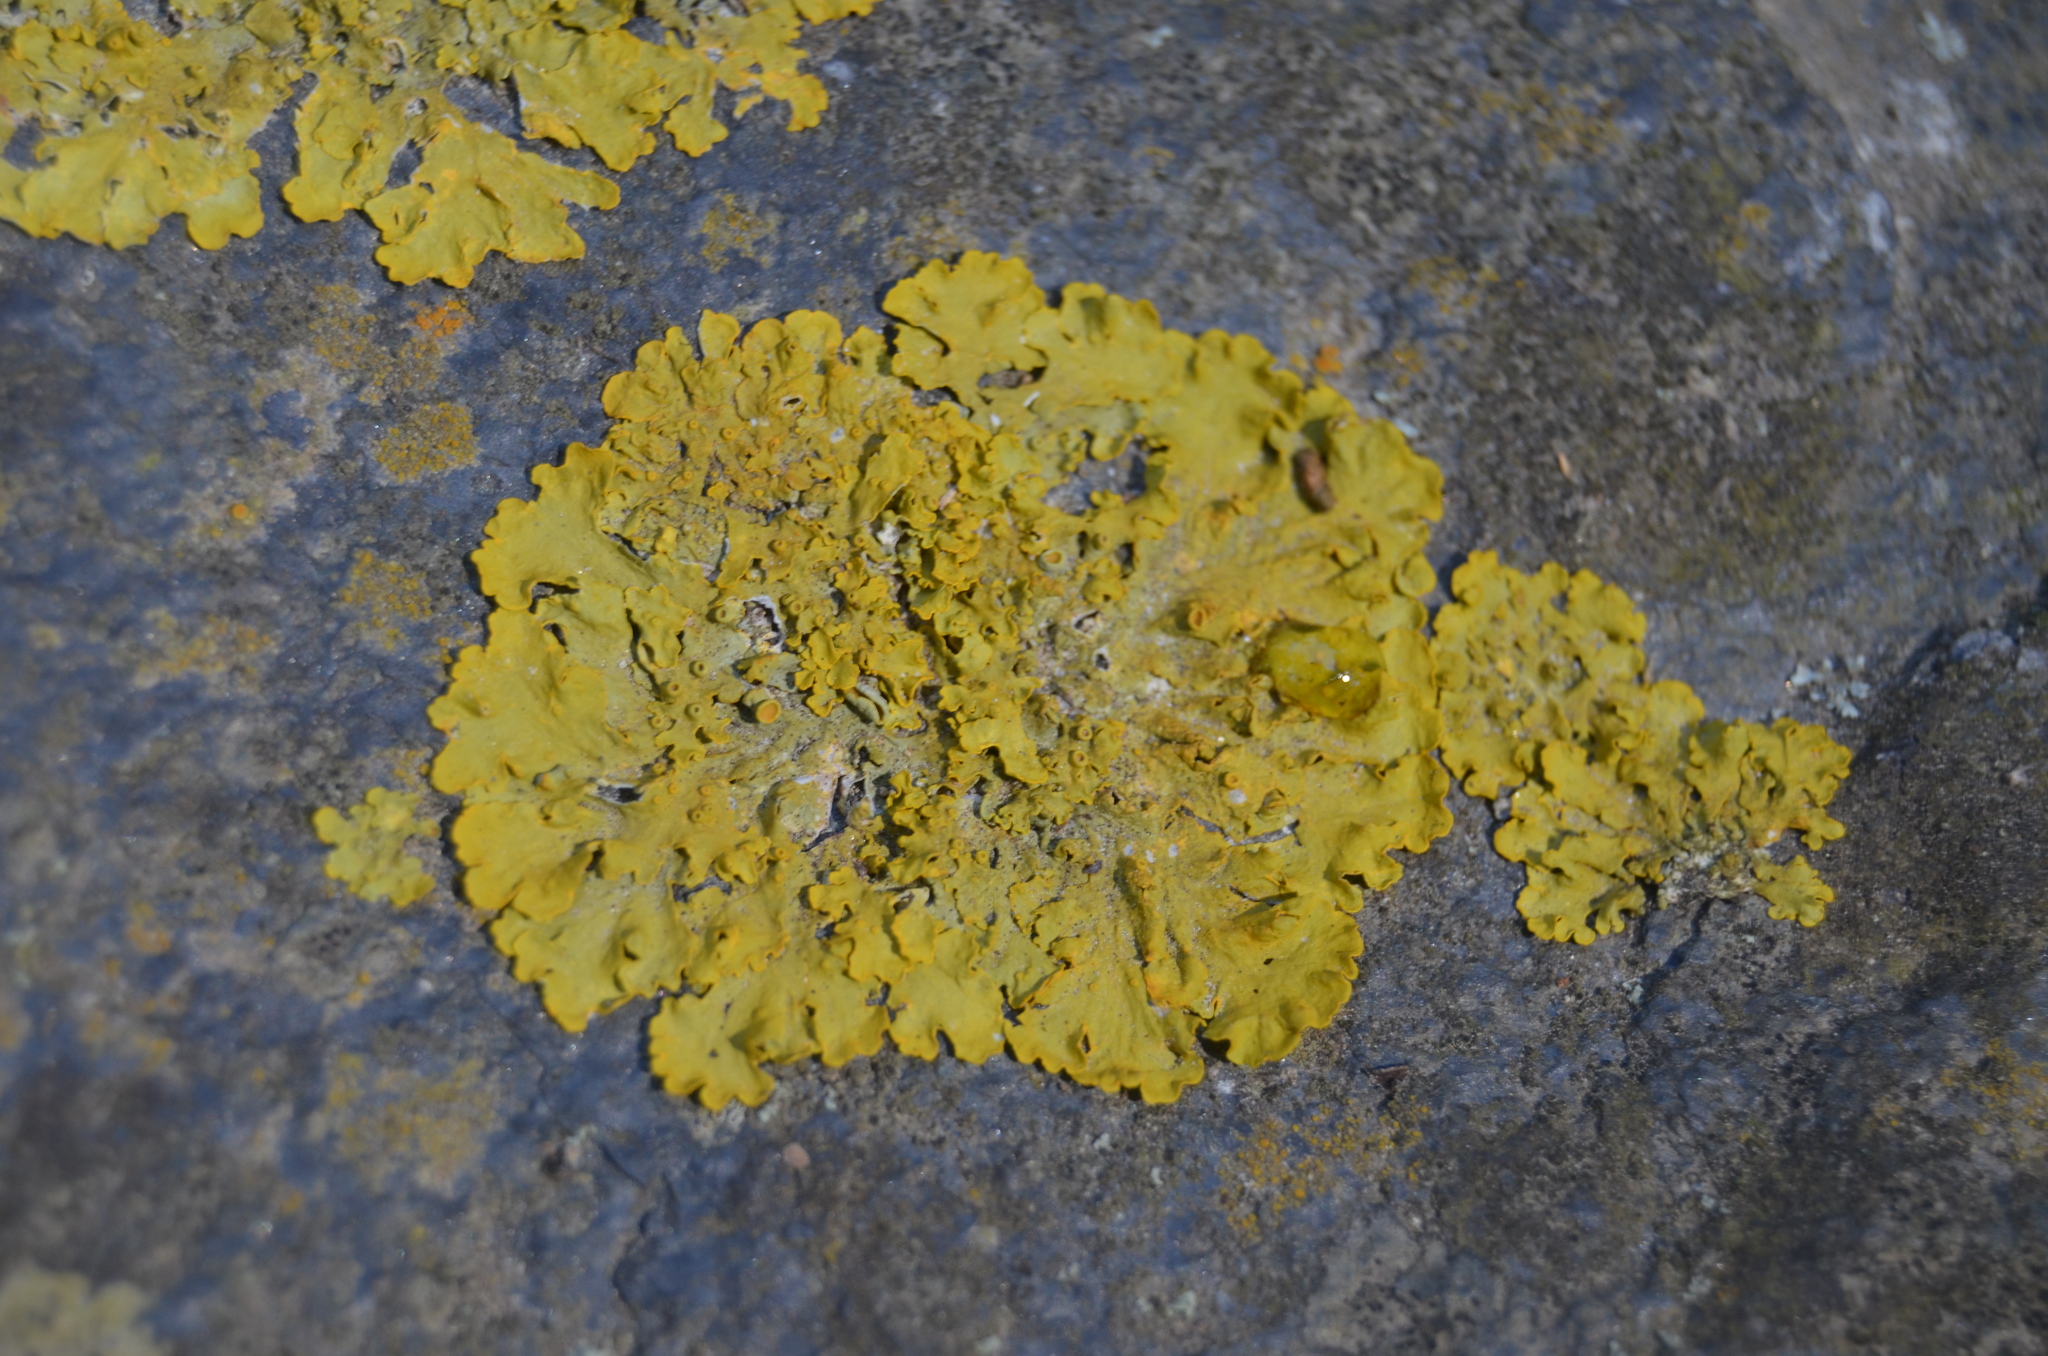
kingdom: Fungi
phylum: Ascomycota
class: Lecanoromycetes
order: Teloschistales
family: Teloschistaceae
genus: Xanthoria
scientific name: Xanthoria parietina
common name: Common orange lichen
